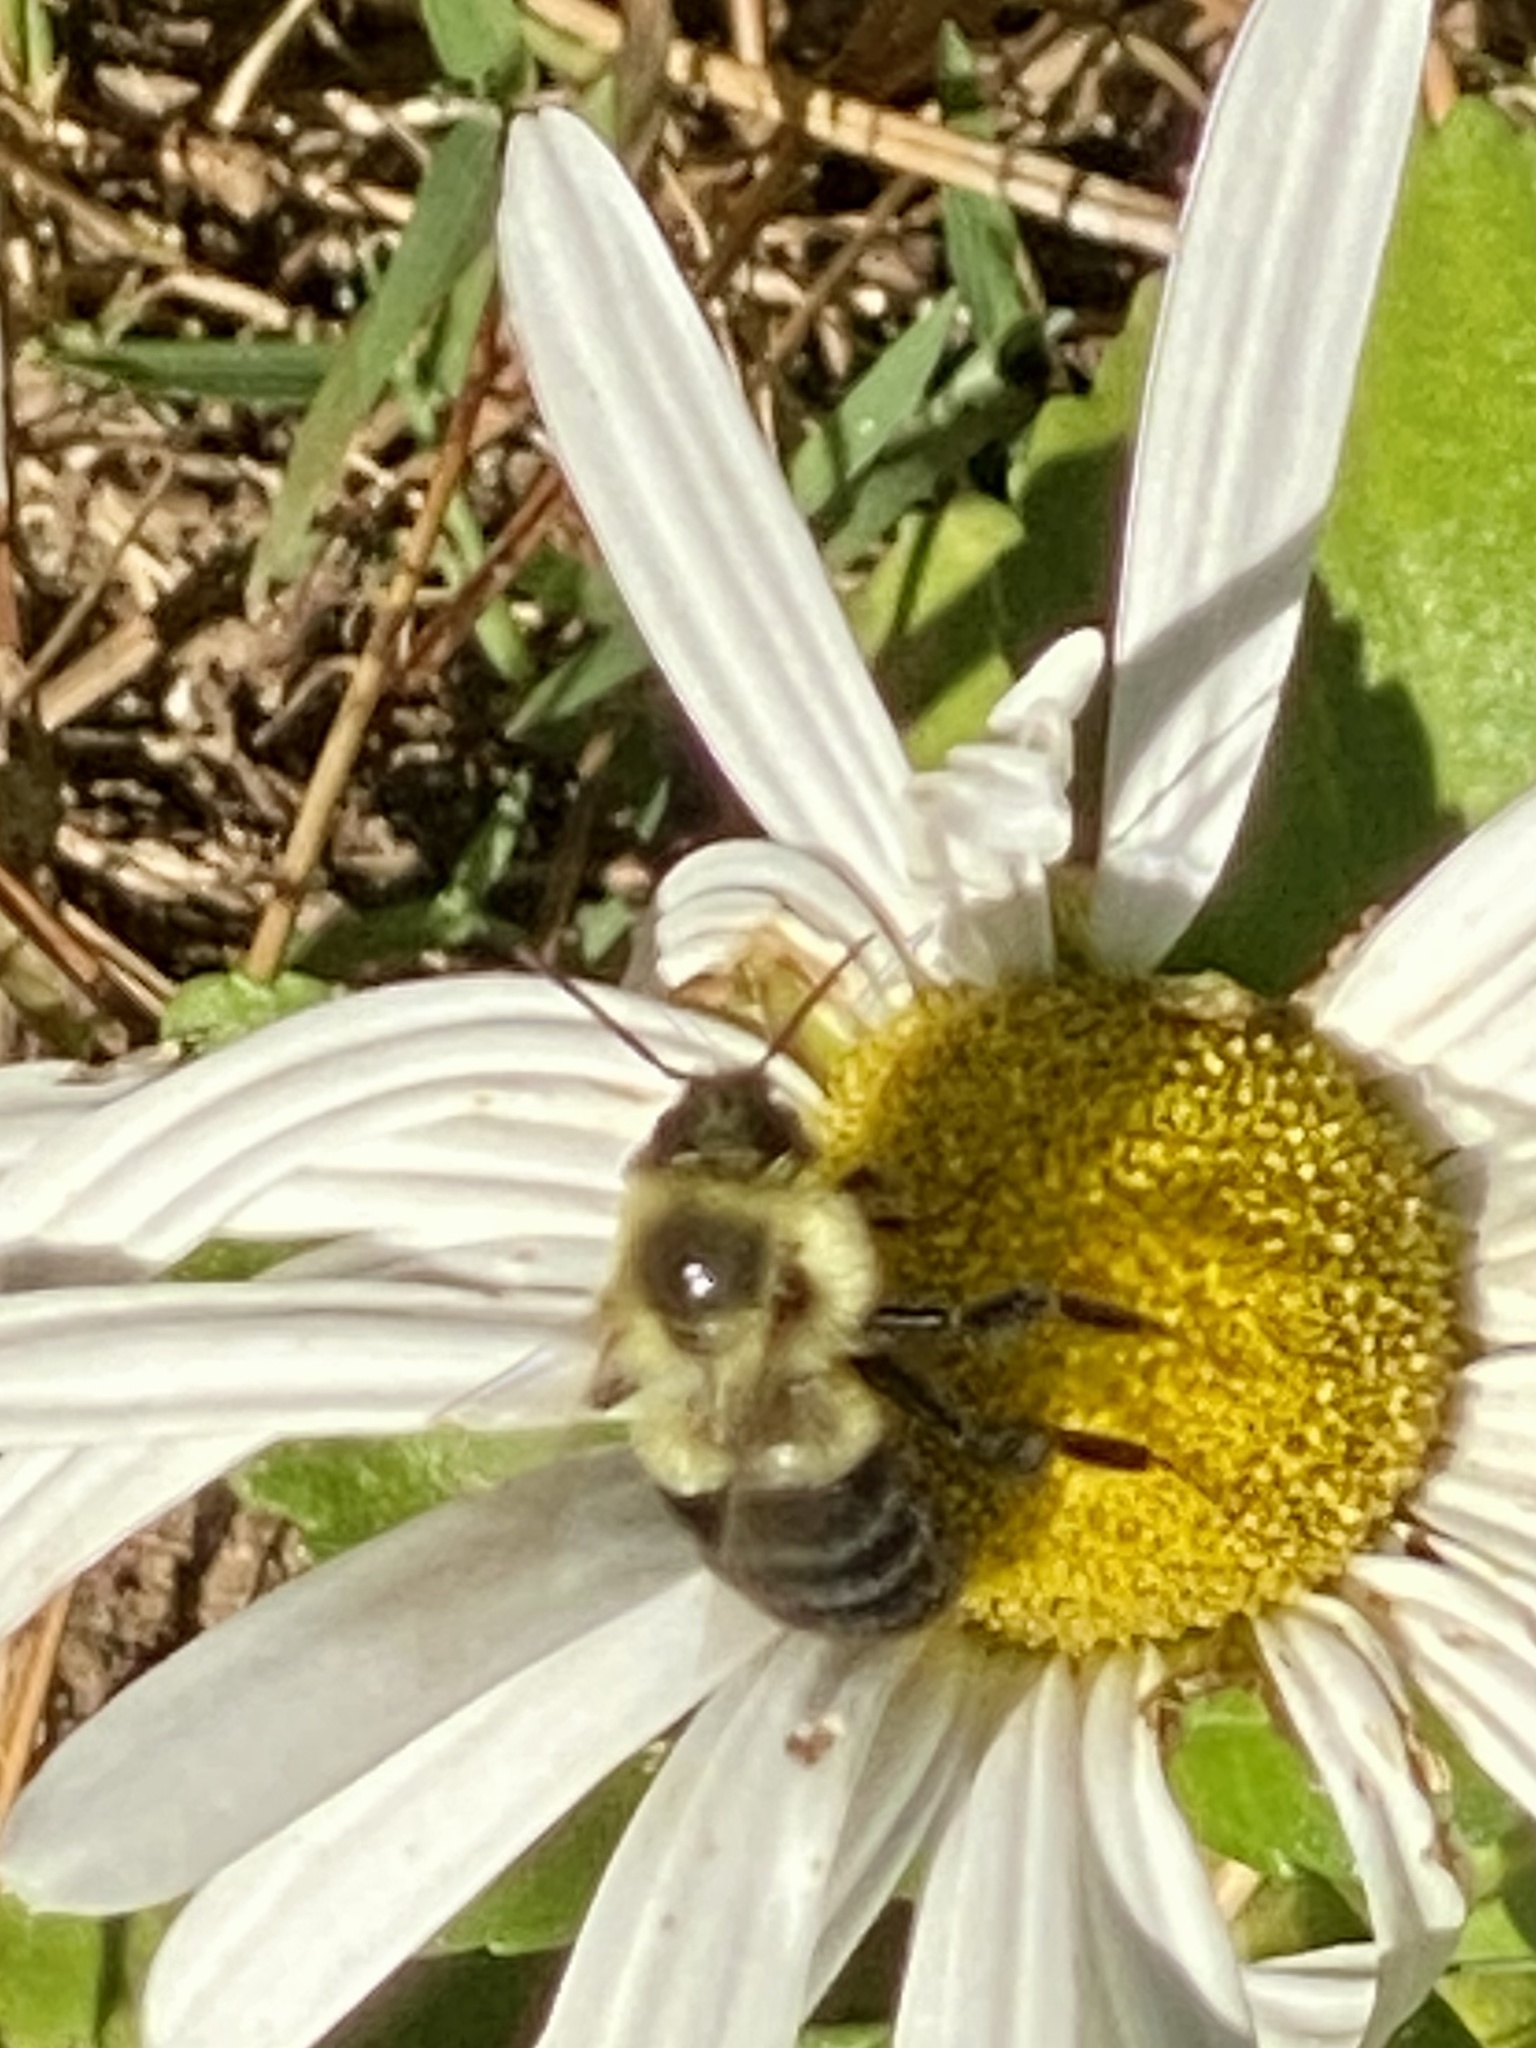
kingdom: Animalia
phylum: Arthropoda
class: Insecta
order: Hymenoptera
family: Apidae
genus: Bombus
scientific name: Bombus impatiens
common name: Common eastern bumble bee
